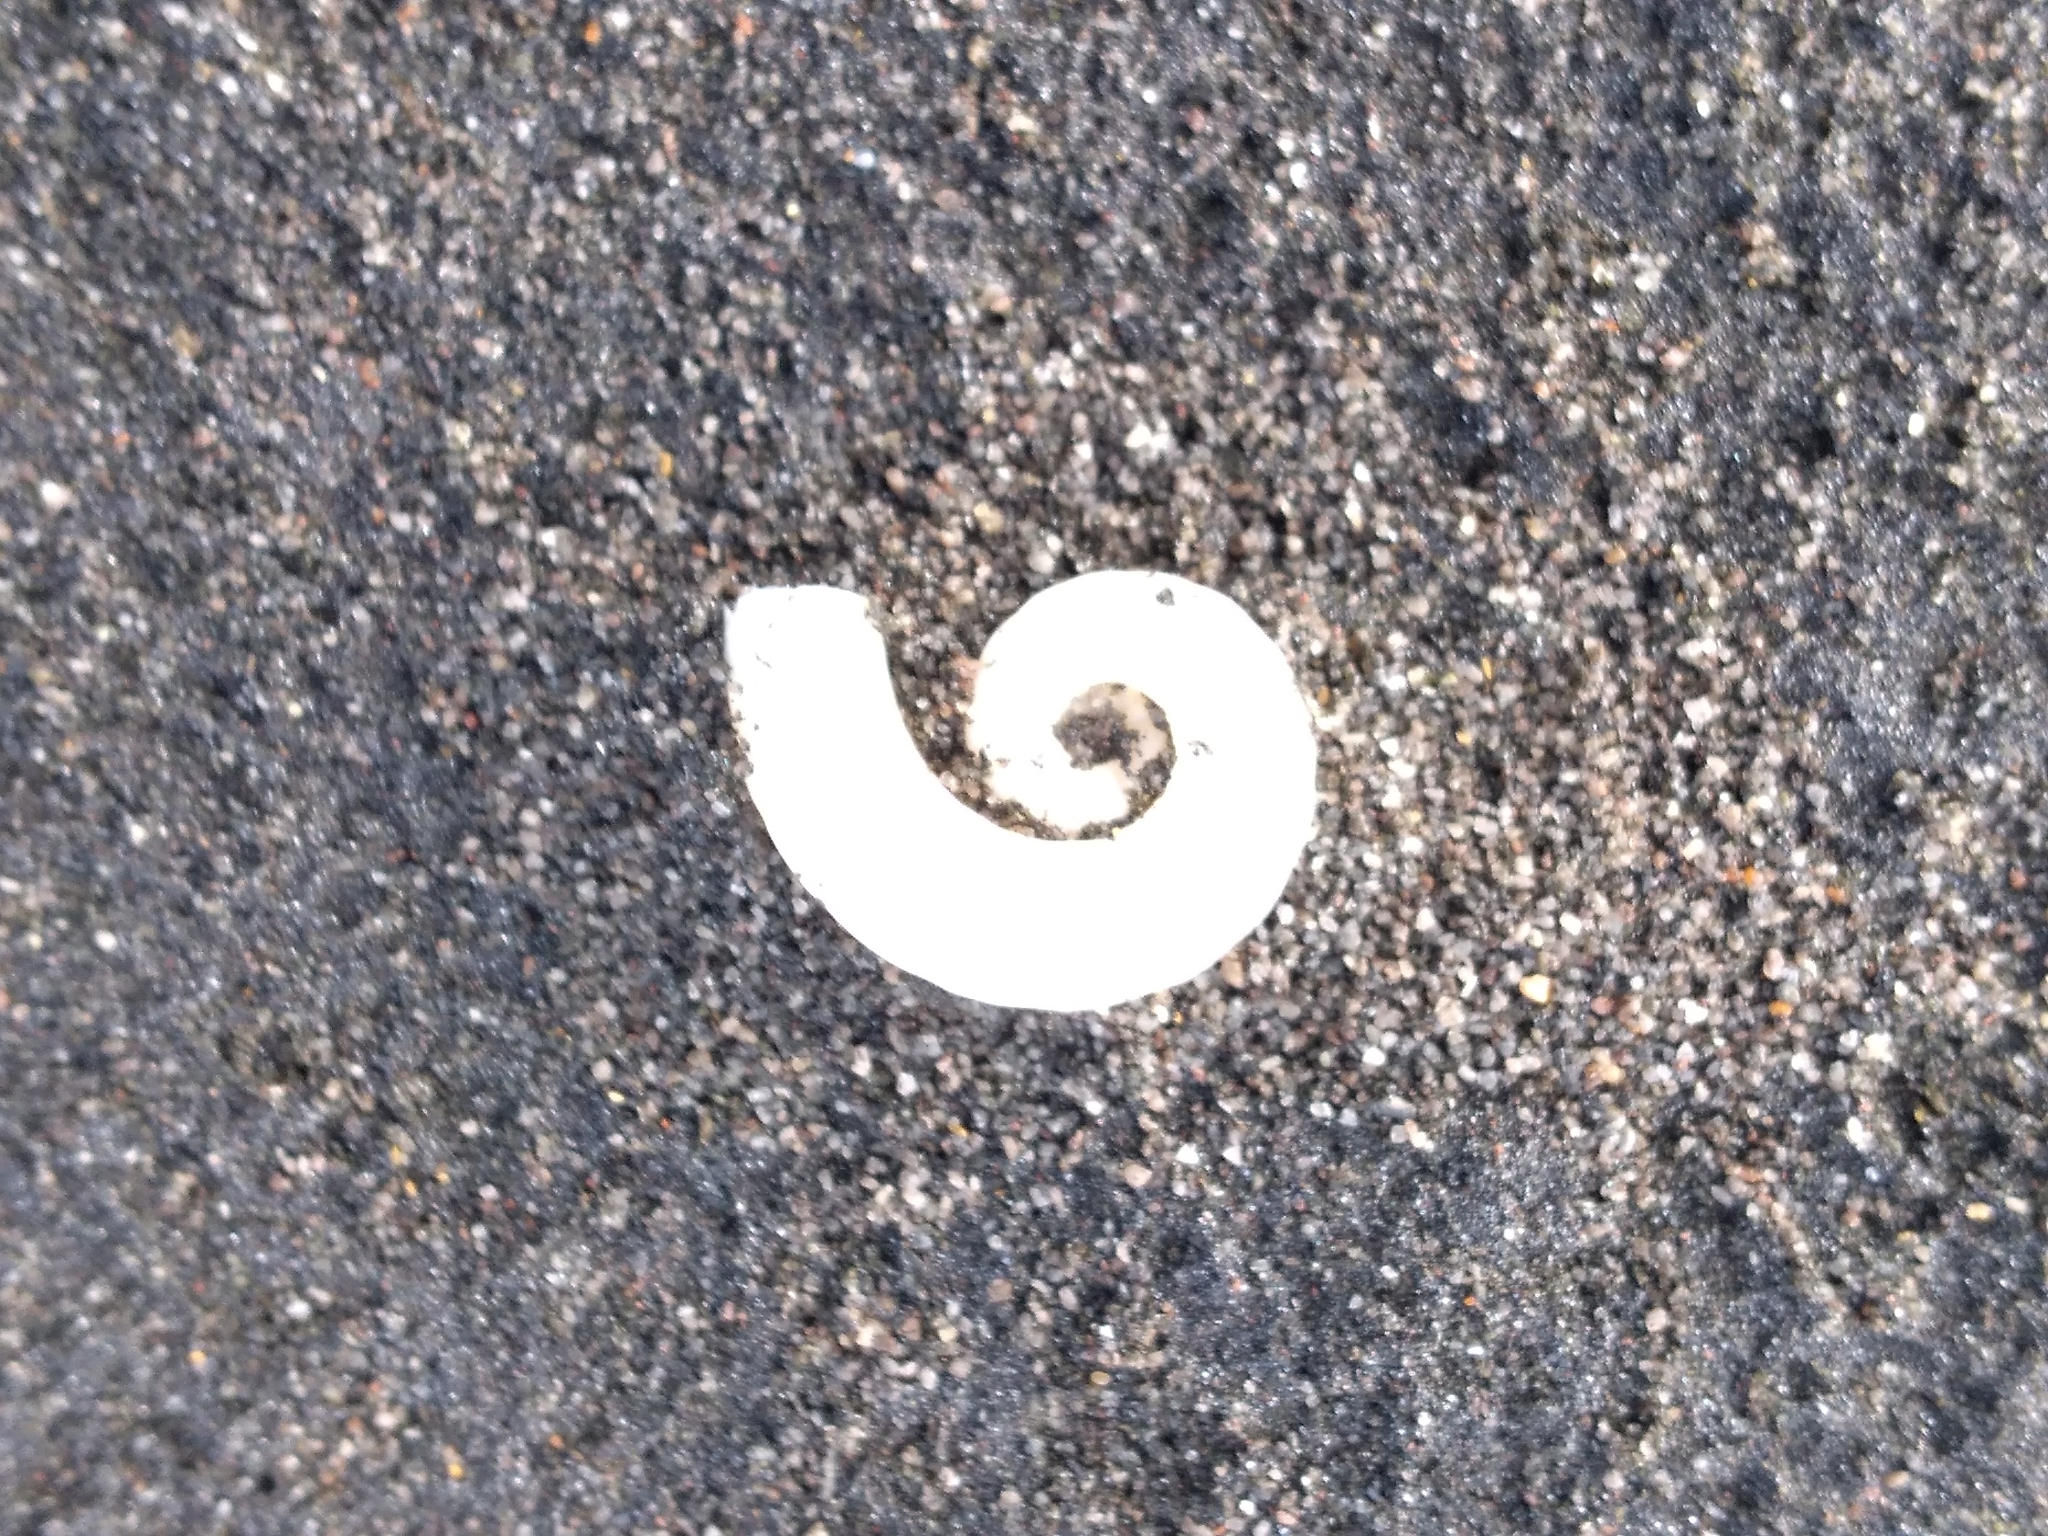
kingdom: Animalia
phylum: Mollusca
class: Cephalopoda
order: Spirulida
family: Spirulidae
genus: Spirula
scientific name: Spirula spirula
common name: Ram's horn squid
